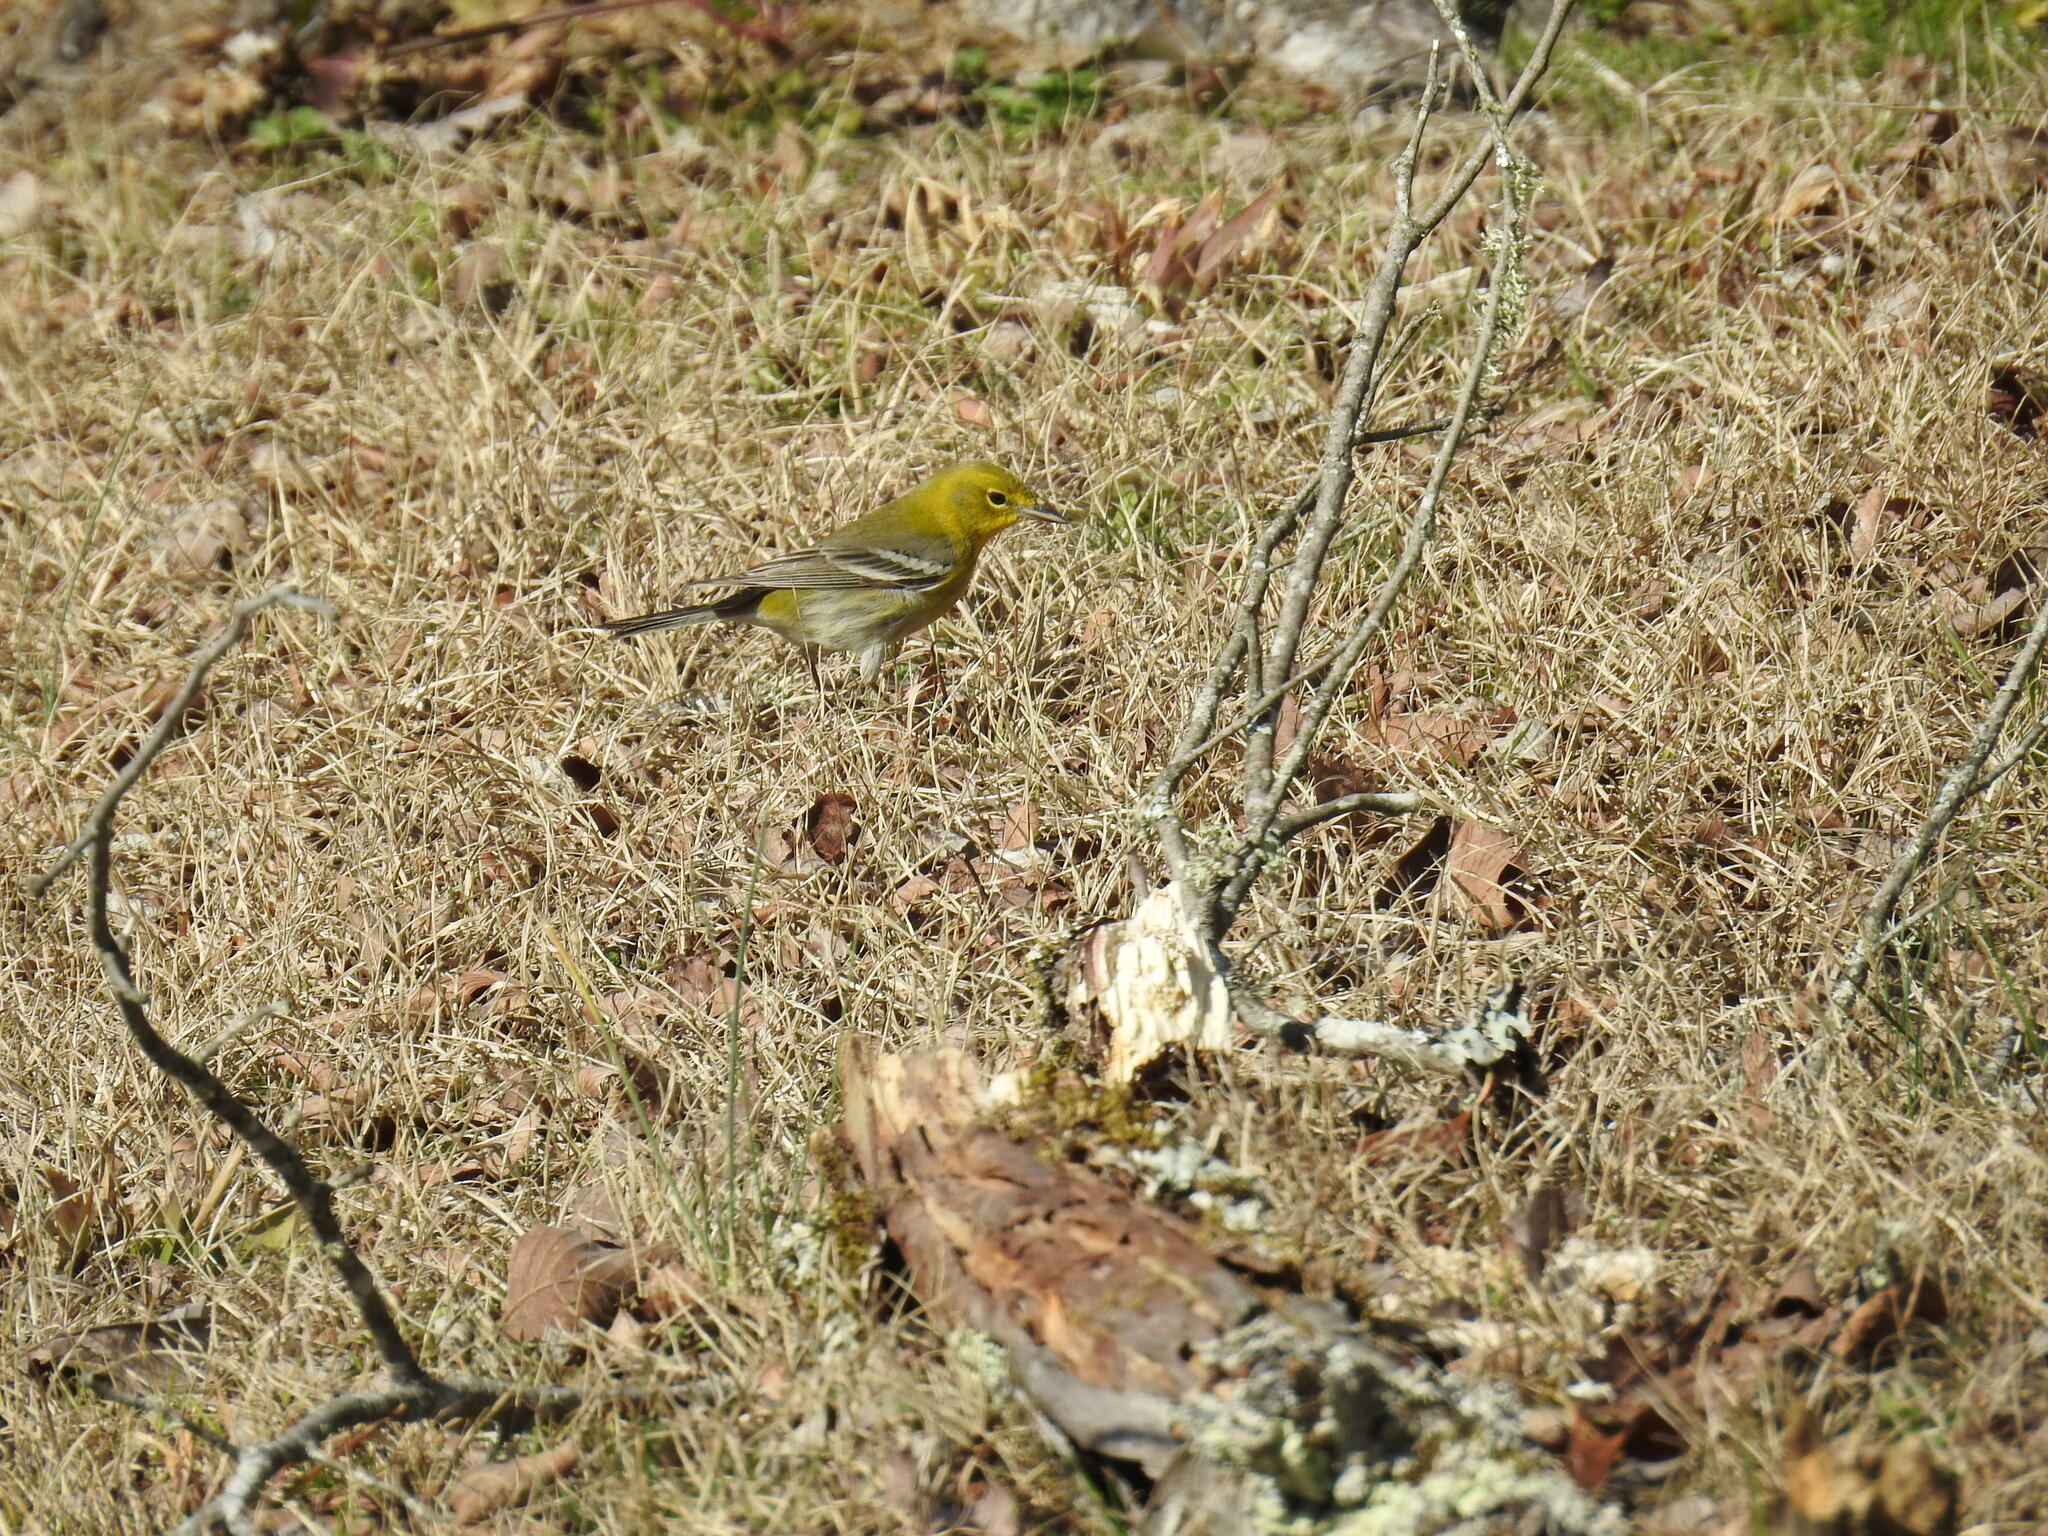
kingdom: Animalia
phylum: Chordata
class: Aves
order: Passeriformes
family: Parulidae
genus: Setophaga
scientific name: Setophaga pinus
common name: Pine warbler
